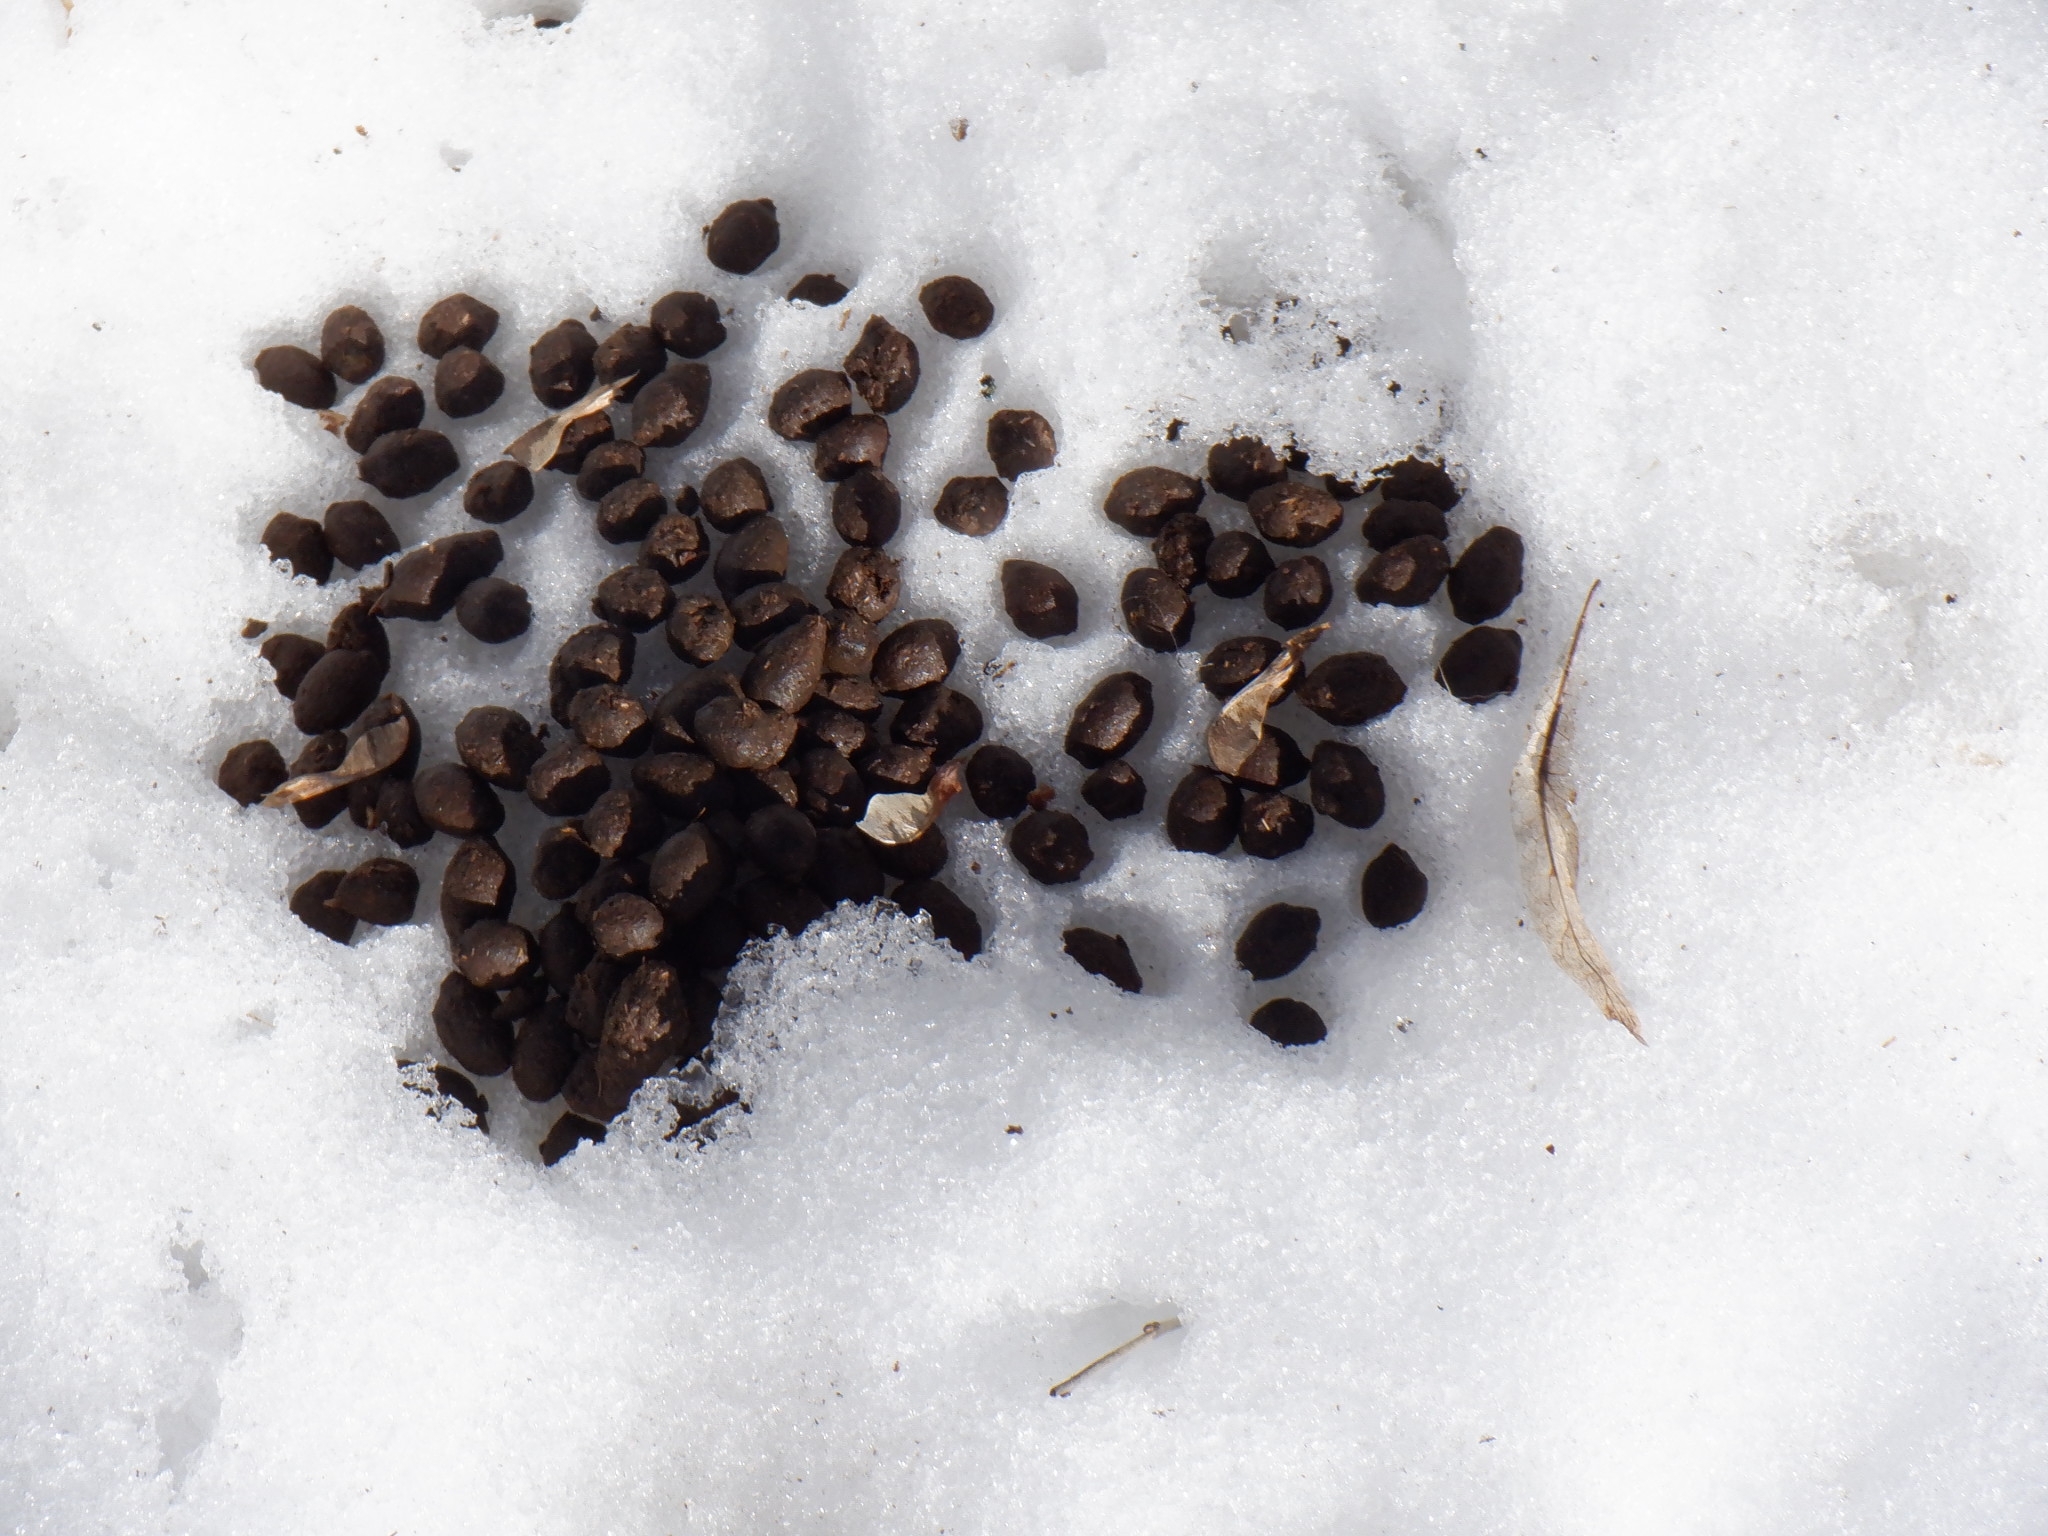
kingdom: Animalia
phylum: Chordata
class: Mammalia
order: Artiodactyla
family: Cervidae
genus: Odocoileus
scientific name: Odocoileus virginianus
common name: White-tailed deer
